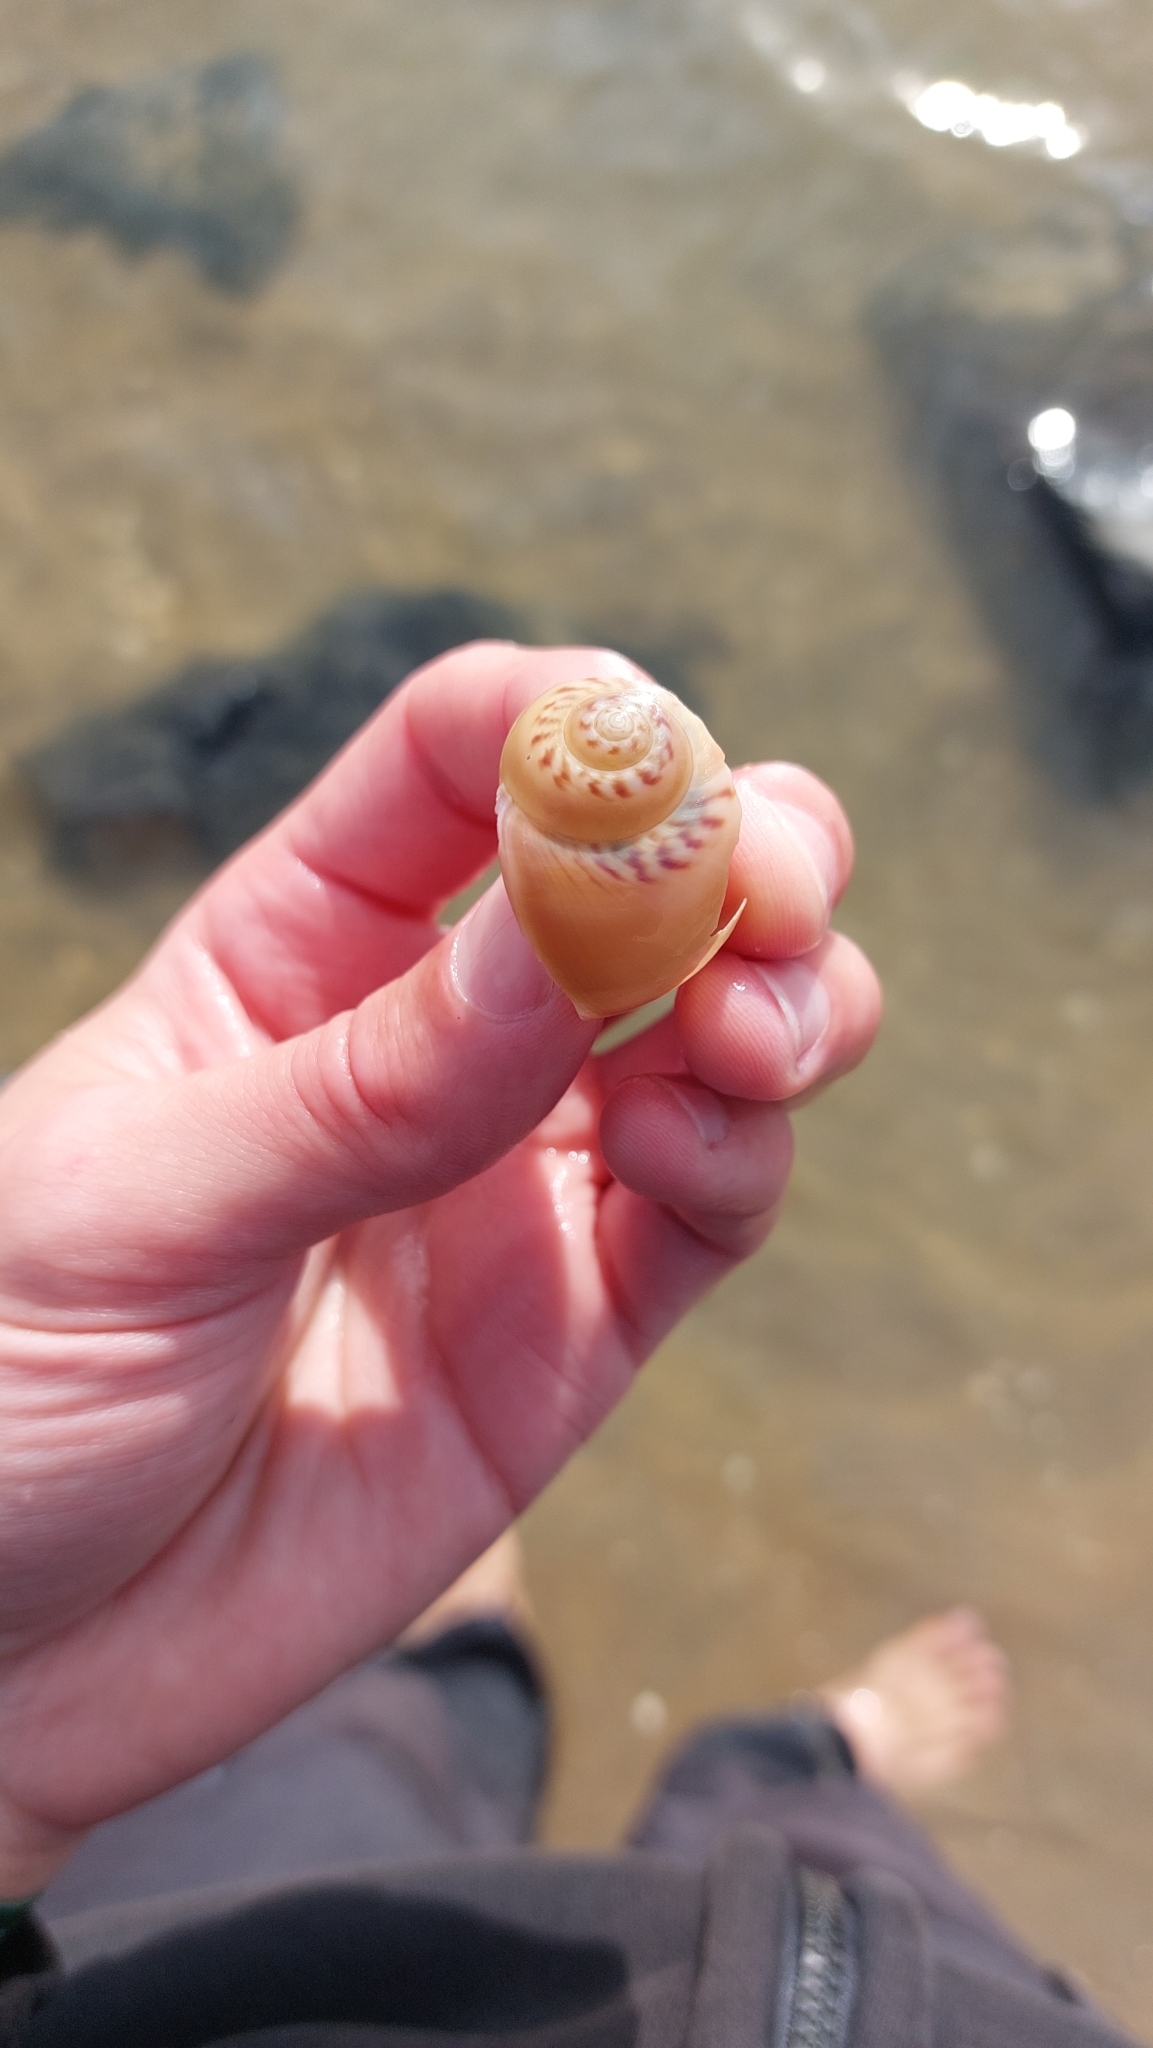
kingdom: Animalia
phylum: Mollusca
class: Gastropoda
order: Littorinimorpha
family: Naticidae
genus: Euspira
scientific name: Euspira catena
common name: Necklace shell
